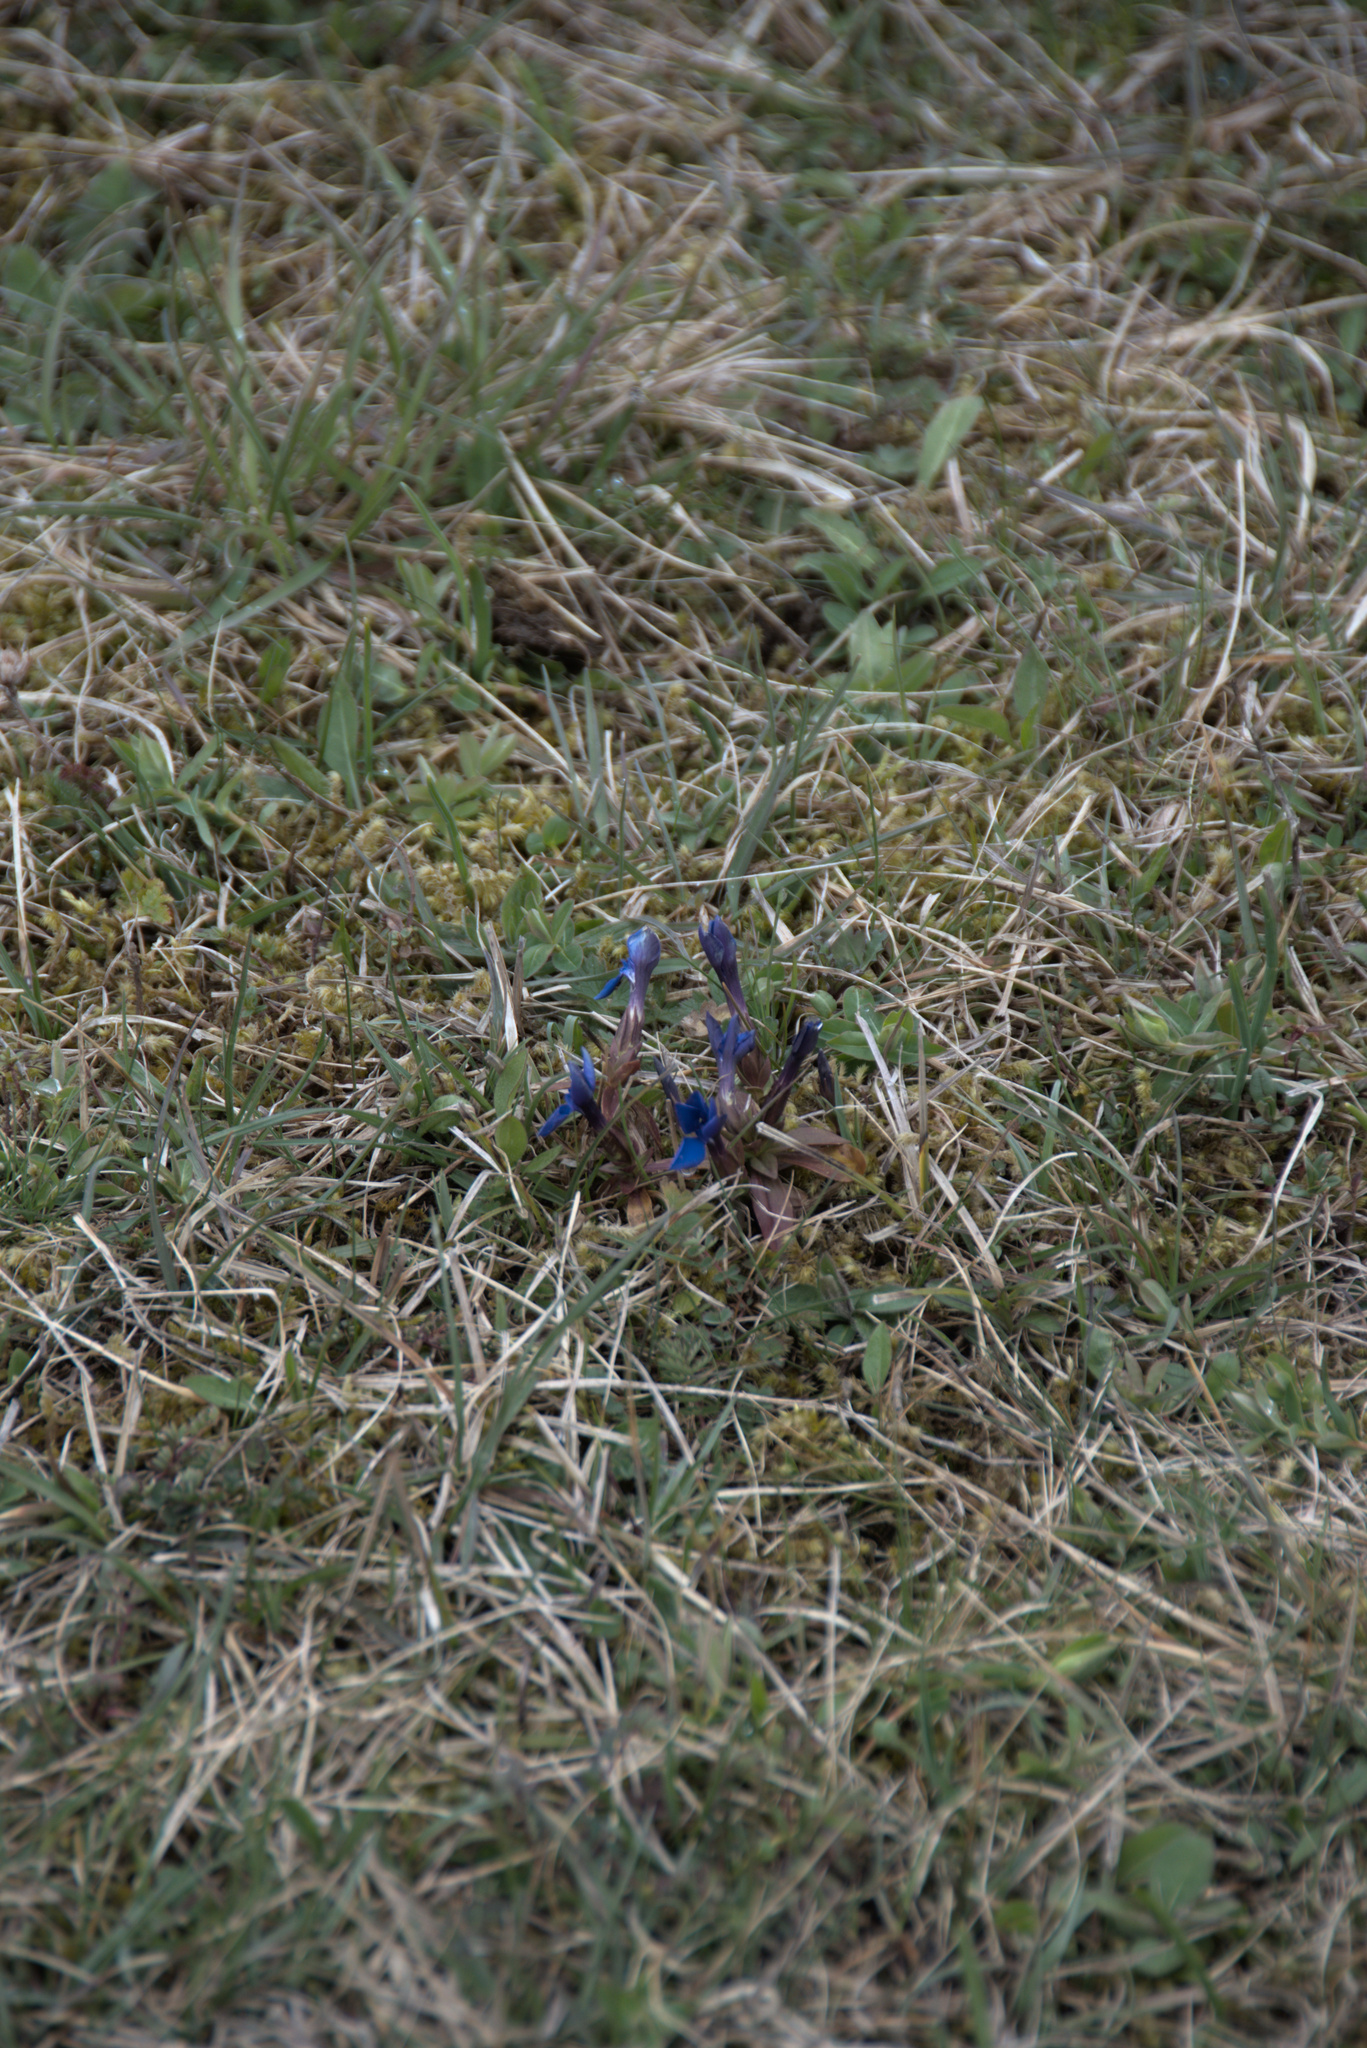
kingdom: Plantae
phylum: Tracheophyta
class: Magnoliopsida
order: Gentianales
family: Gentianaceae
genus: Gentiana
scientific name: Gentiana verna
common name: Spring gentian
